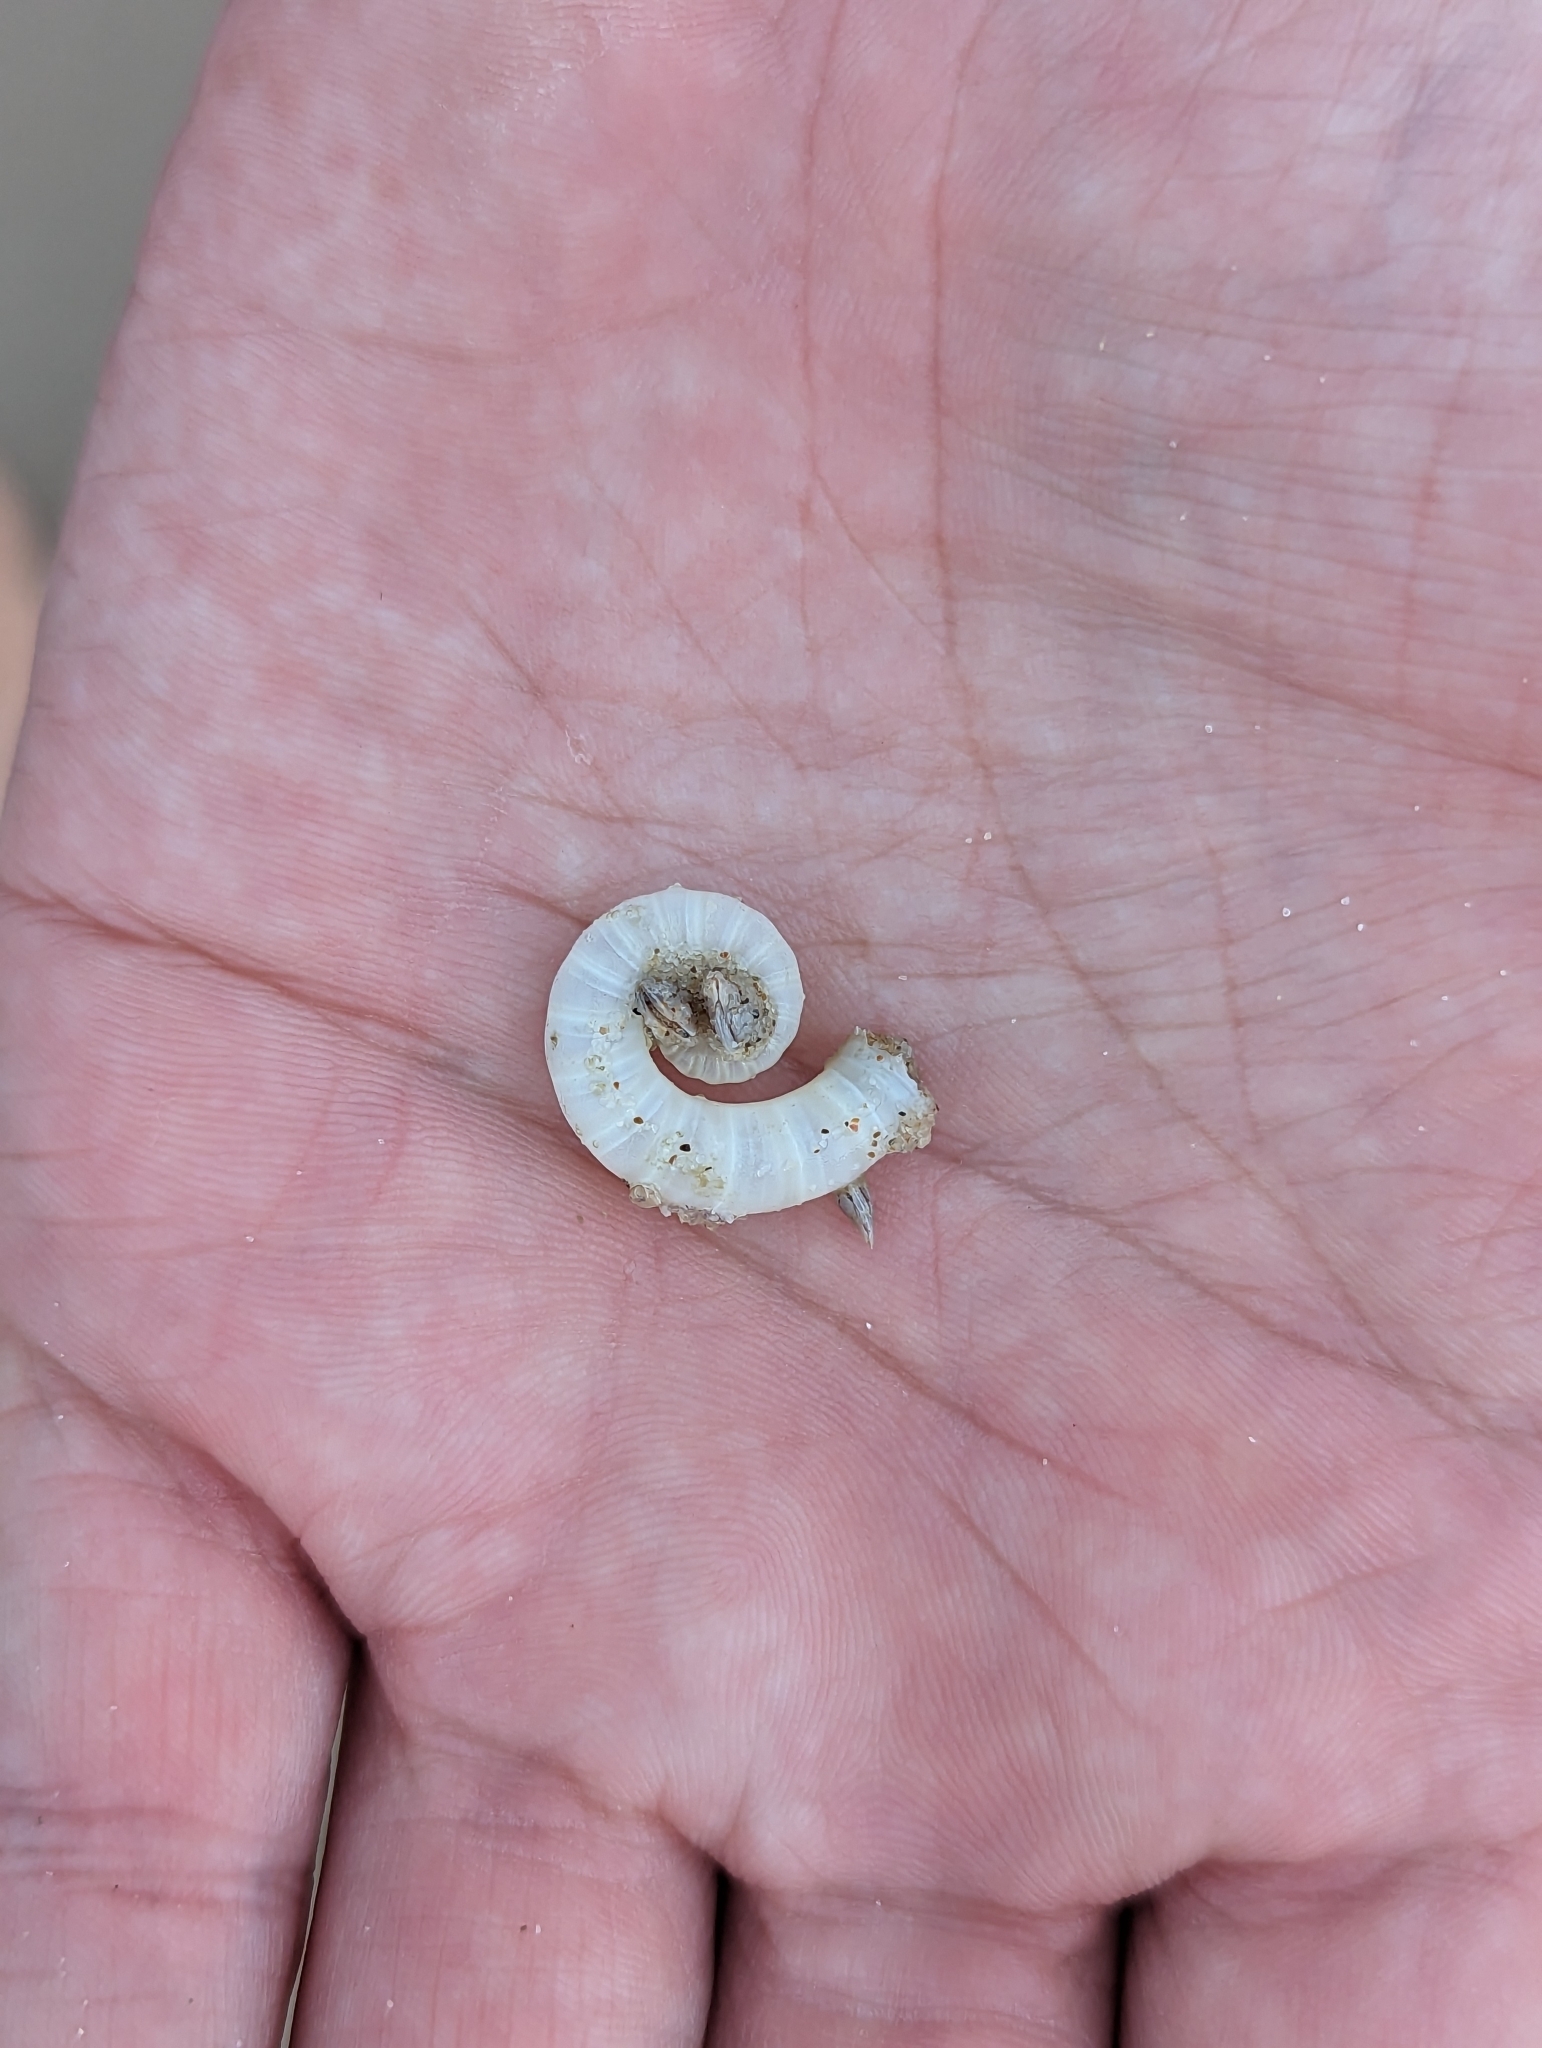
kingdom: Animalia
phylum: Mollusca
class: Cephalopoda
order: Spirulida
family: Spirulidae
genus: Spirula
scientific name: Spirula spirula
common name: Ram's horn squid
